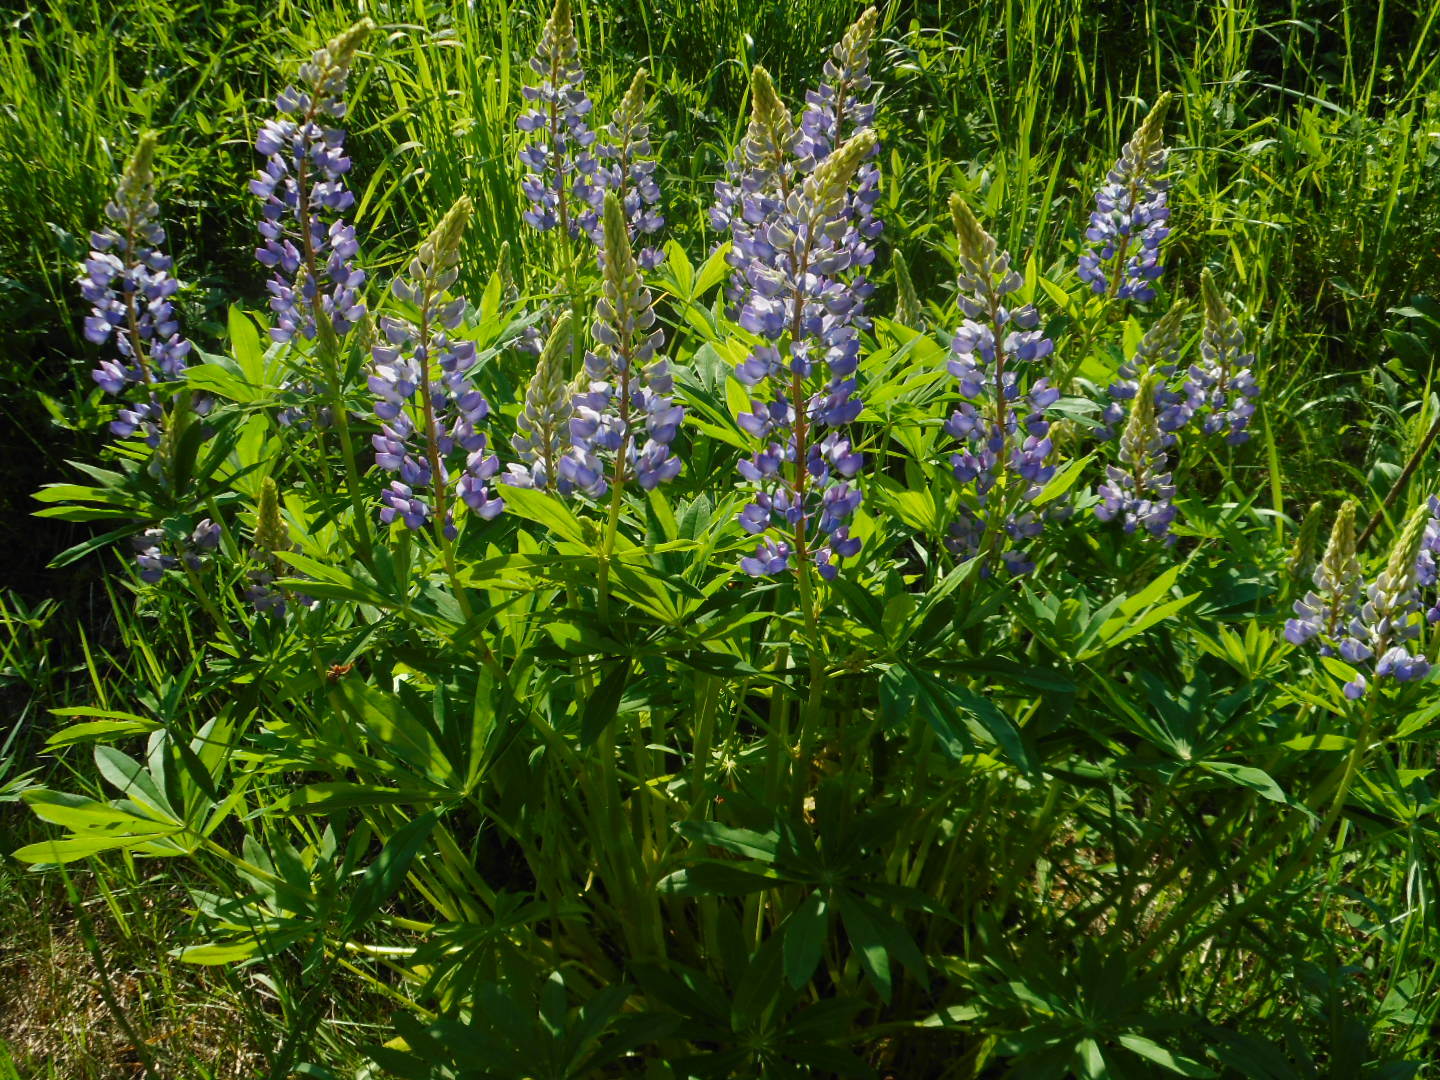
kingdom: Plantae
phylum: Tracheophyta
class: Magnoliopsida
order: Fabales
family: Fabaceae
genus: Lupinus
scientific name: Lupinus polyphyllus
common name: Garden lupin
